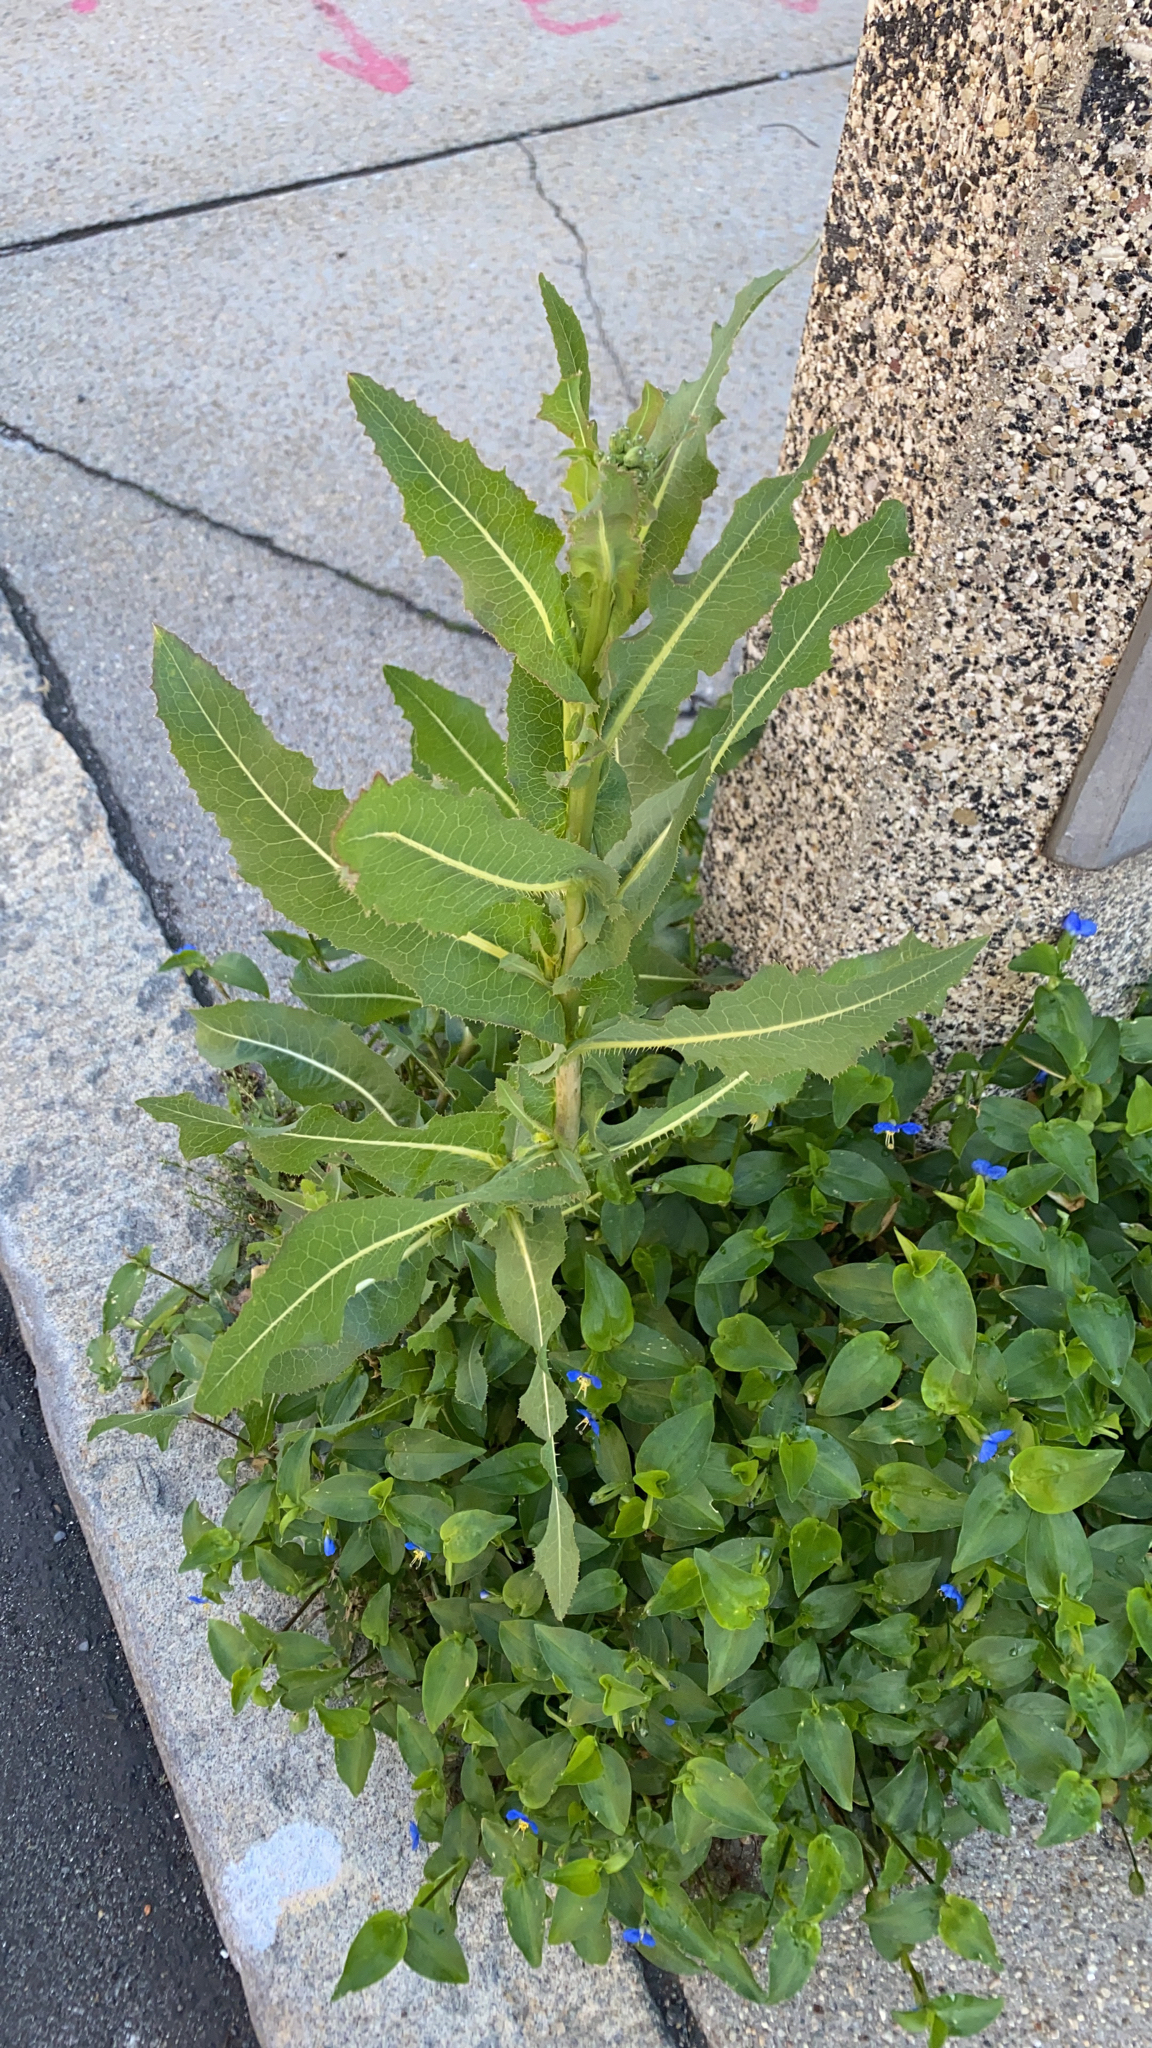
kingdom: Plantae
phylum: Tracheophyta
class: Magnoliopsida
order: Asterales
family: Asteraceae
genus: Lactuca
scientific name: Lactuca serriola
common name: Prickly lettuce
